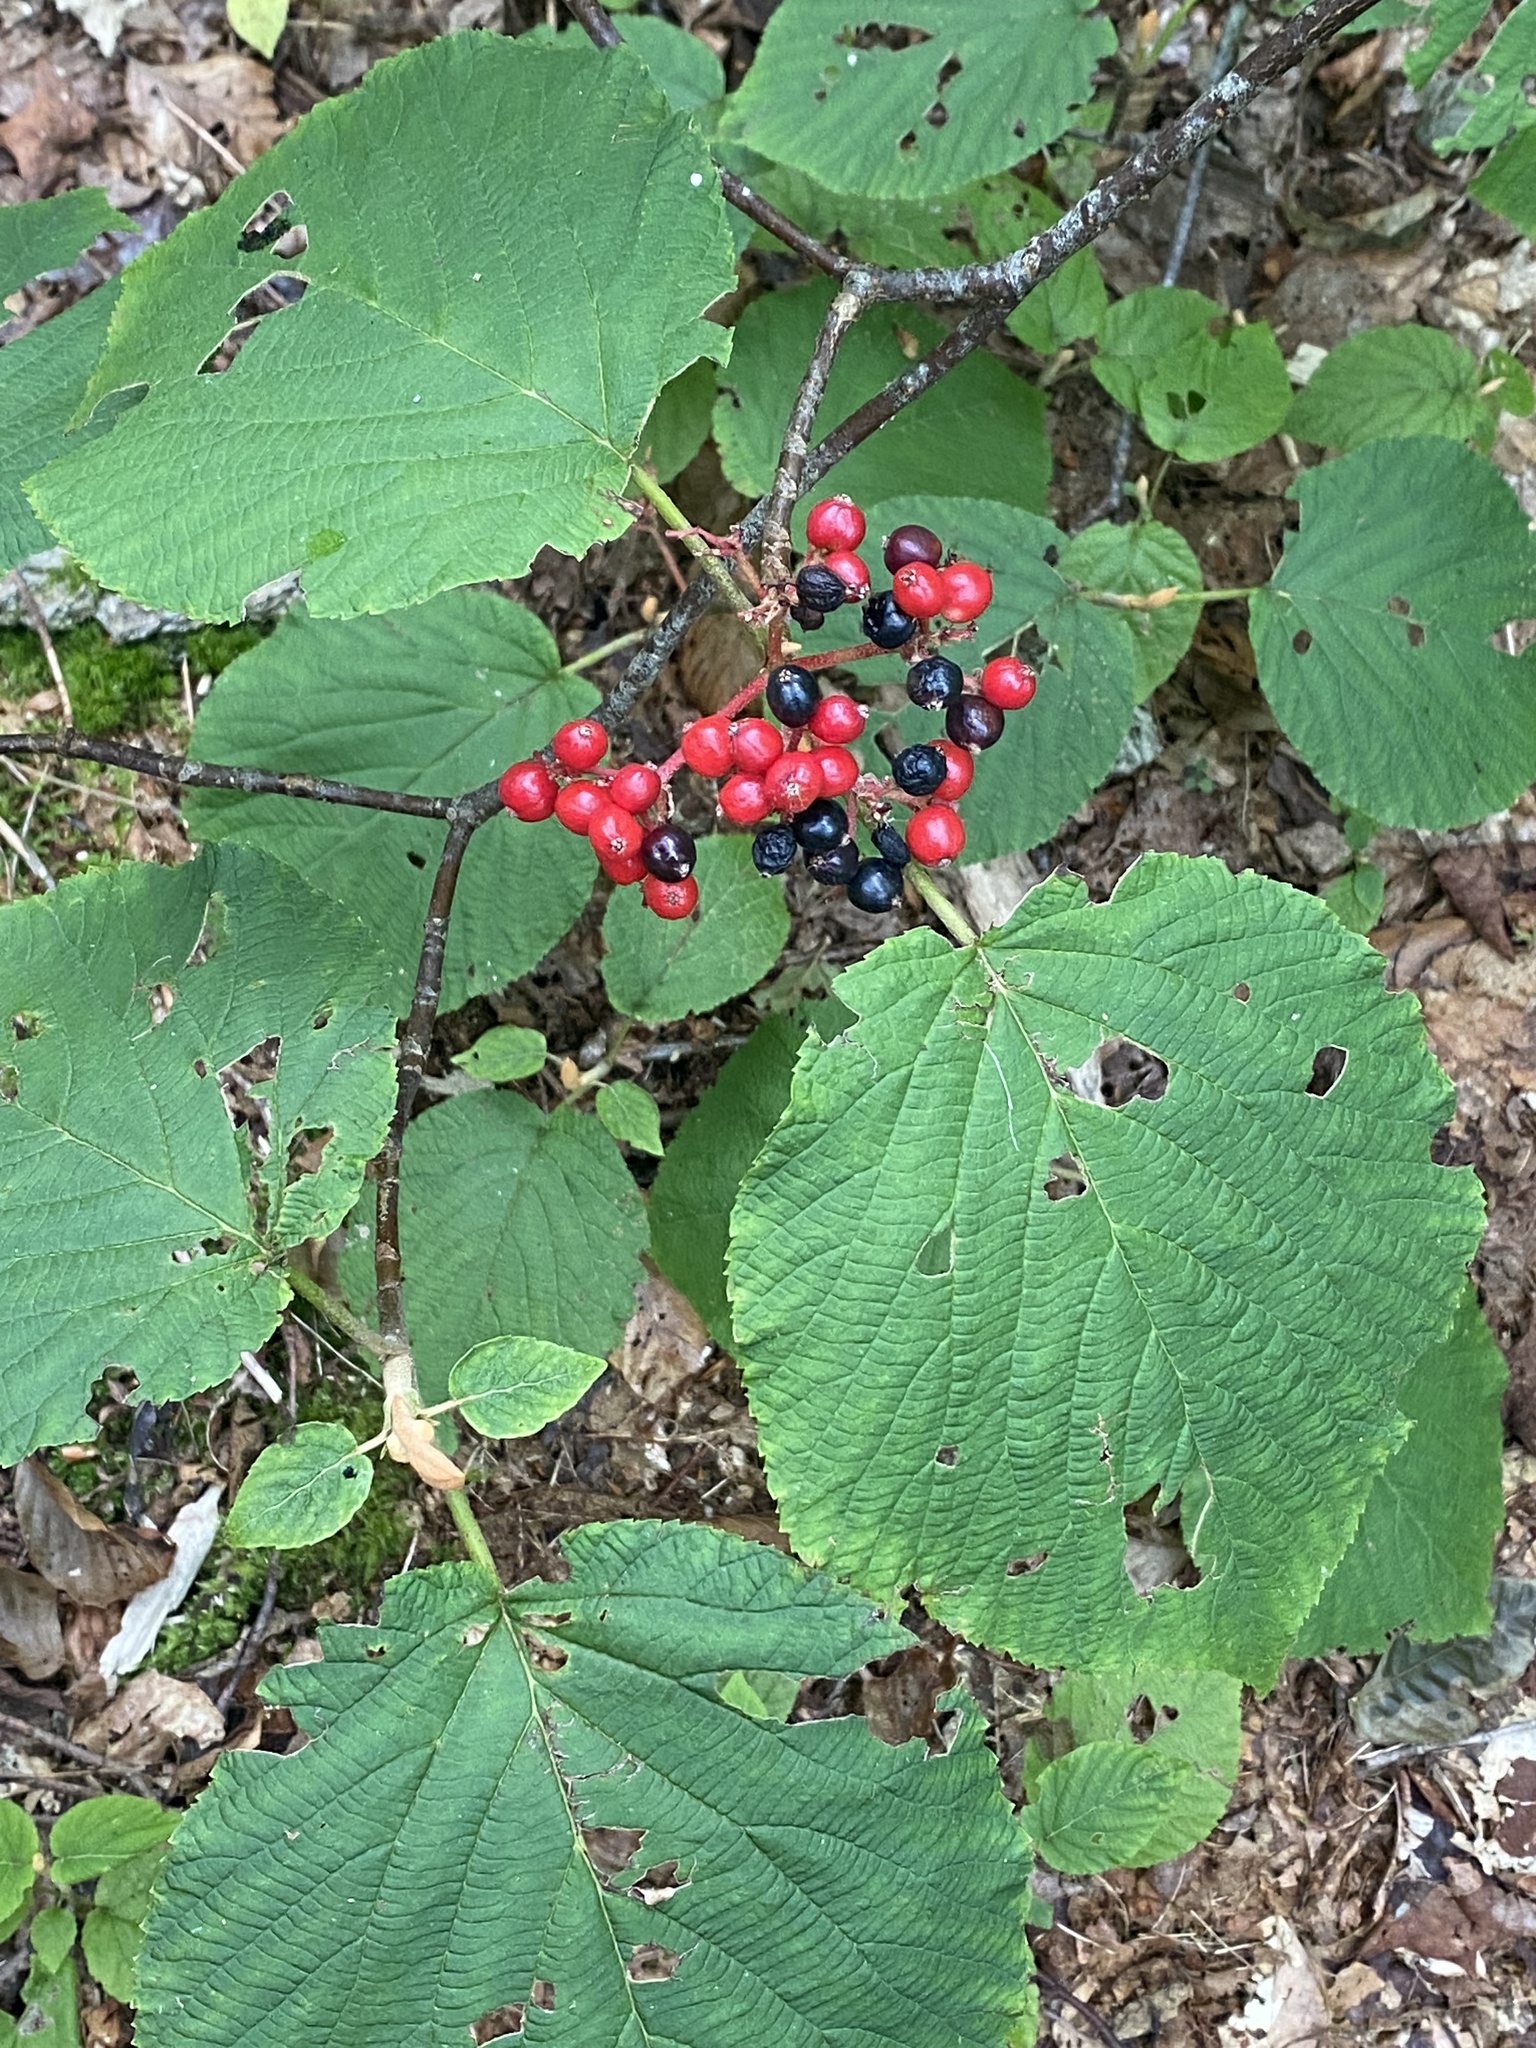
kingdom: Plantae
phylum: Tracheophyta
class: Magnoliopsida
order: Dipsacales
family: Viburnaceae
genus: Viburnum
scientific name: Viburnum lantanoides
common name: Hobblebush
